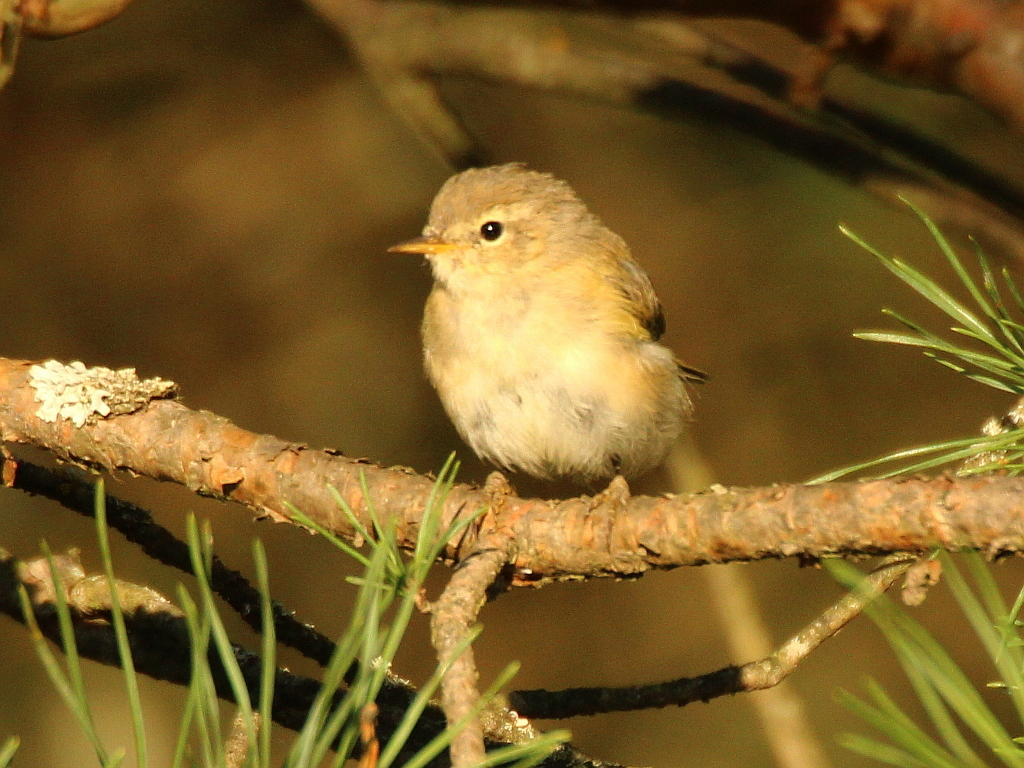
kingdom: Animalia
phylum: Chordata
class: Aves
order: Passeriformes
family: Phylloscopidae
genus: Phylloscopus
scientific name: Phylloscopus collybita
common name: Common chiffchaff
